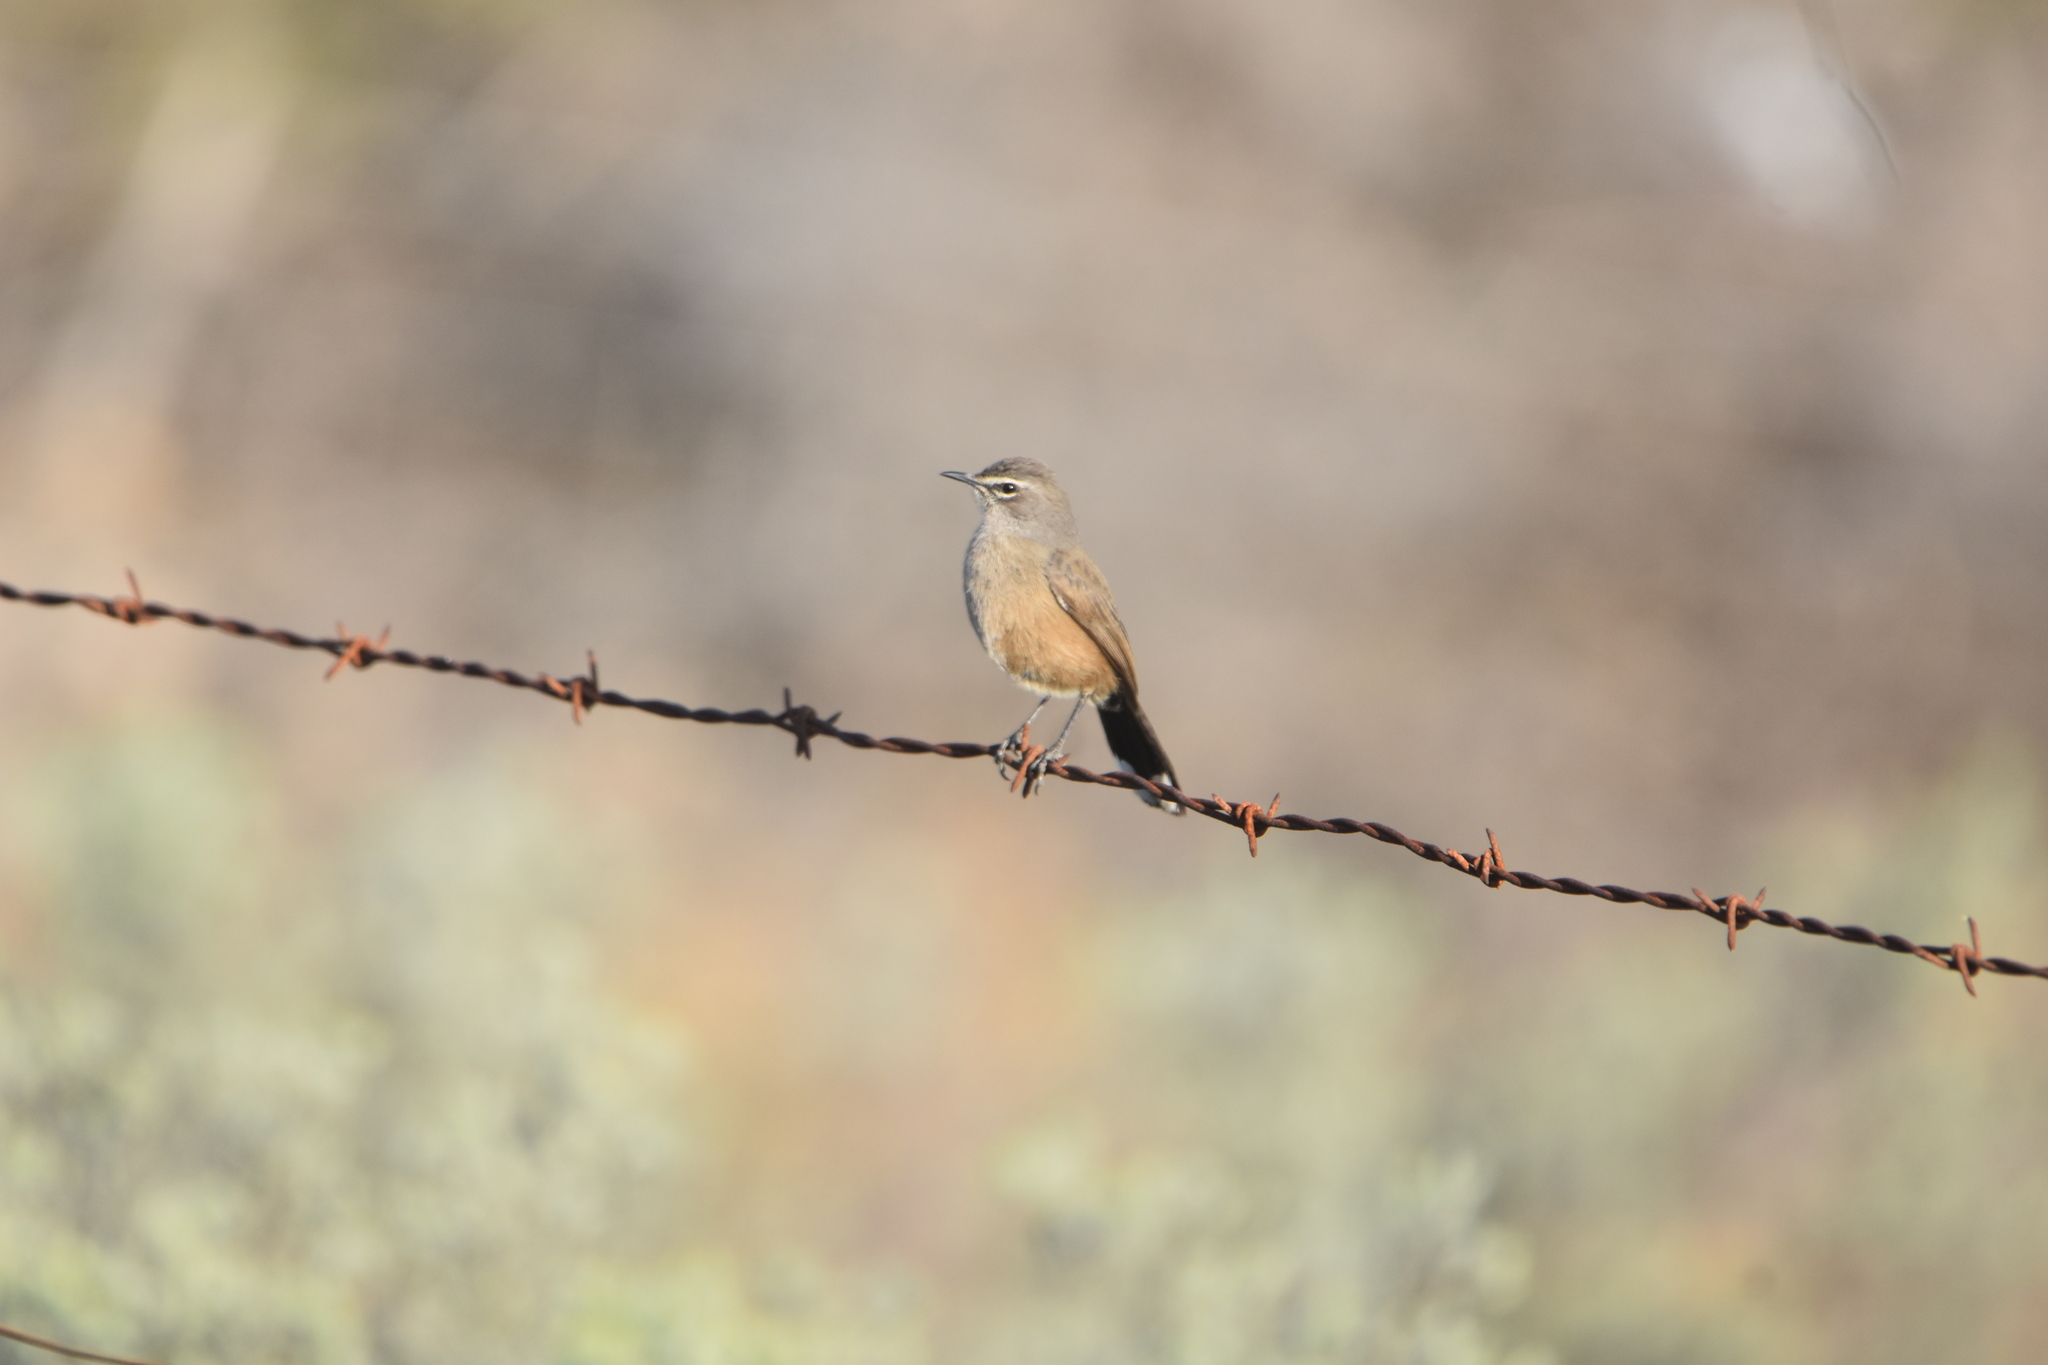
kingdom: Animalia
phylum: Chordata
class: Aves
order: Passeriformes
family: Muscicapidae
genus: Erythropygia
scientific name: Erythropygia coryphoeus
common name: Karoo scrub robin
